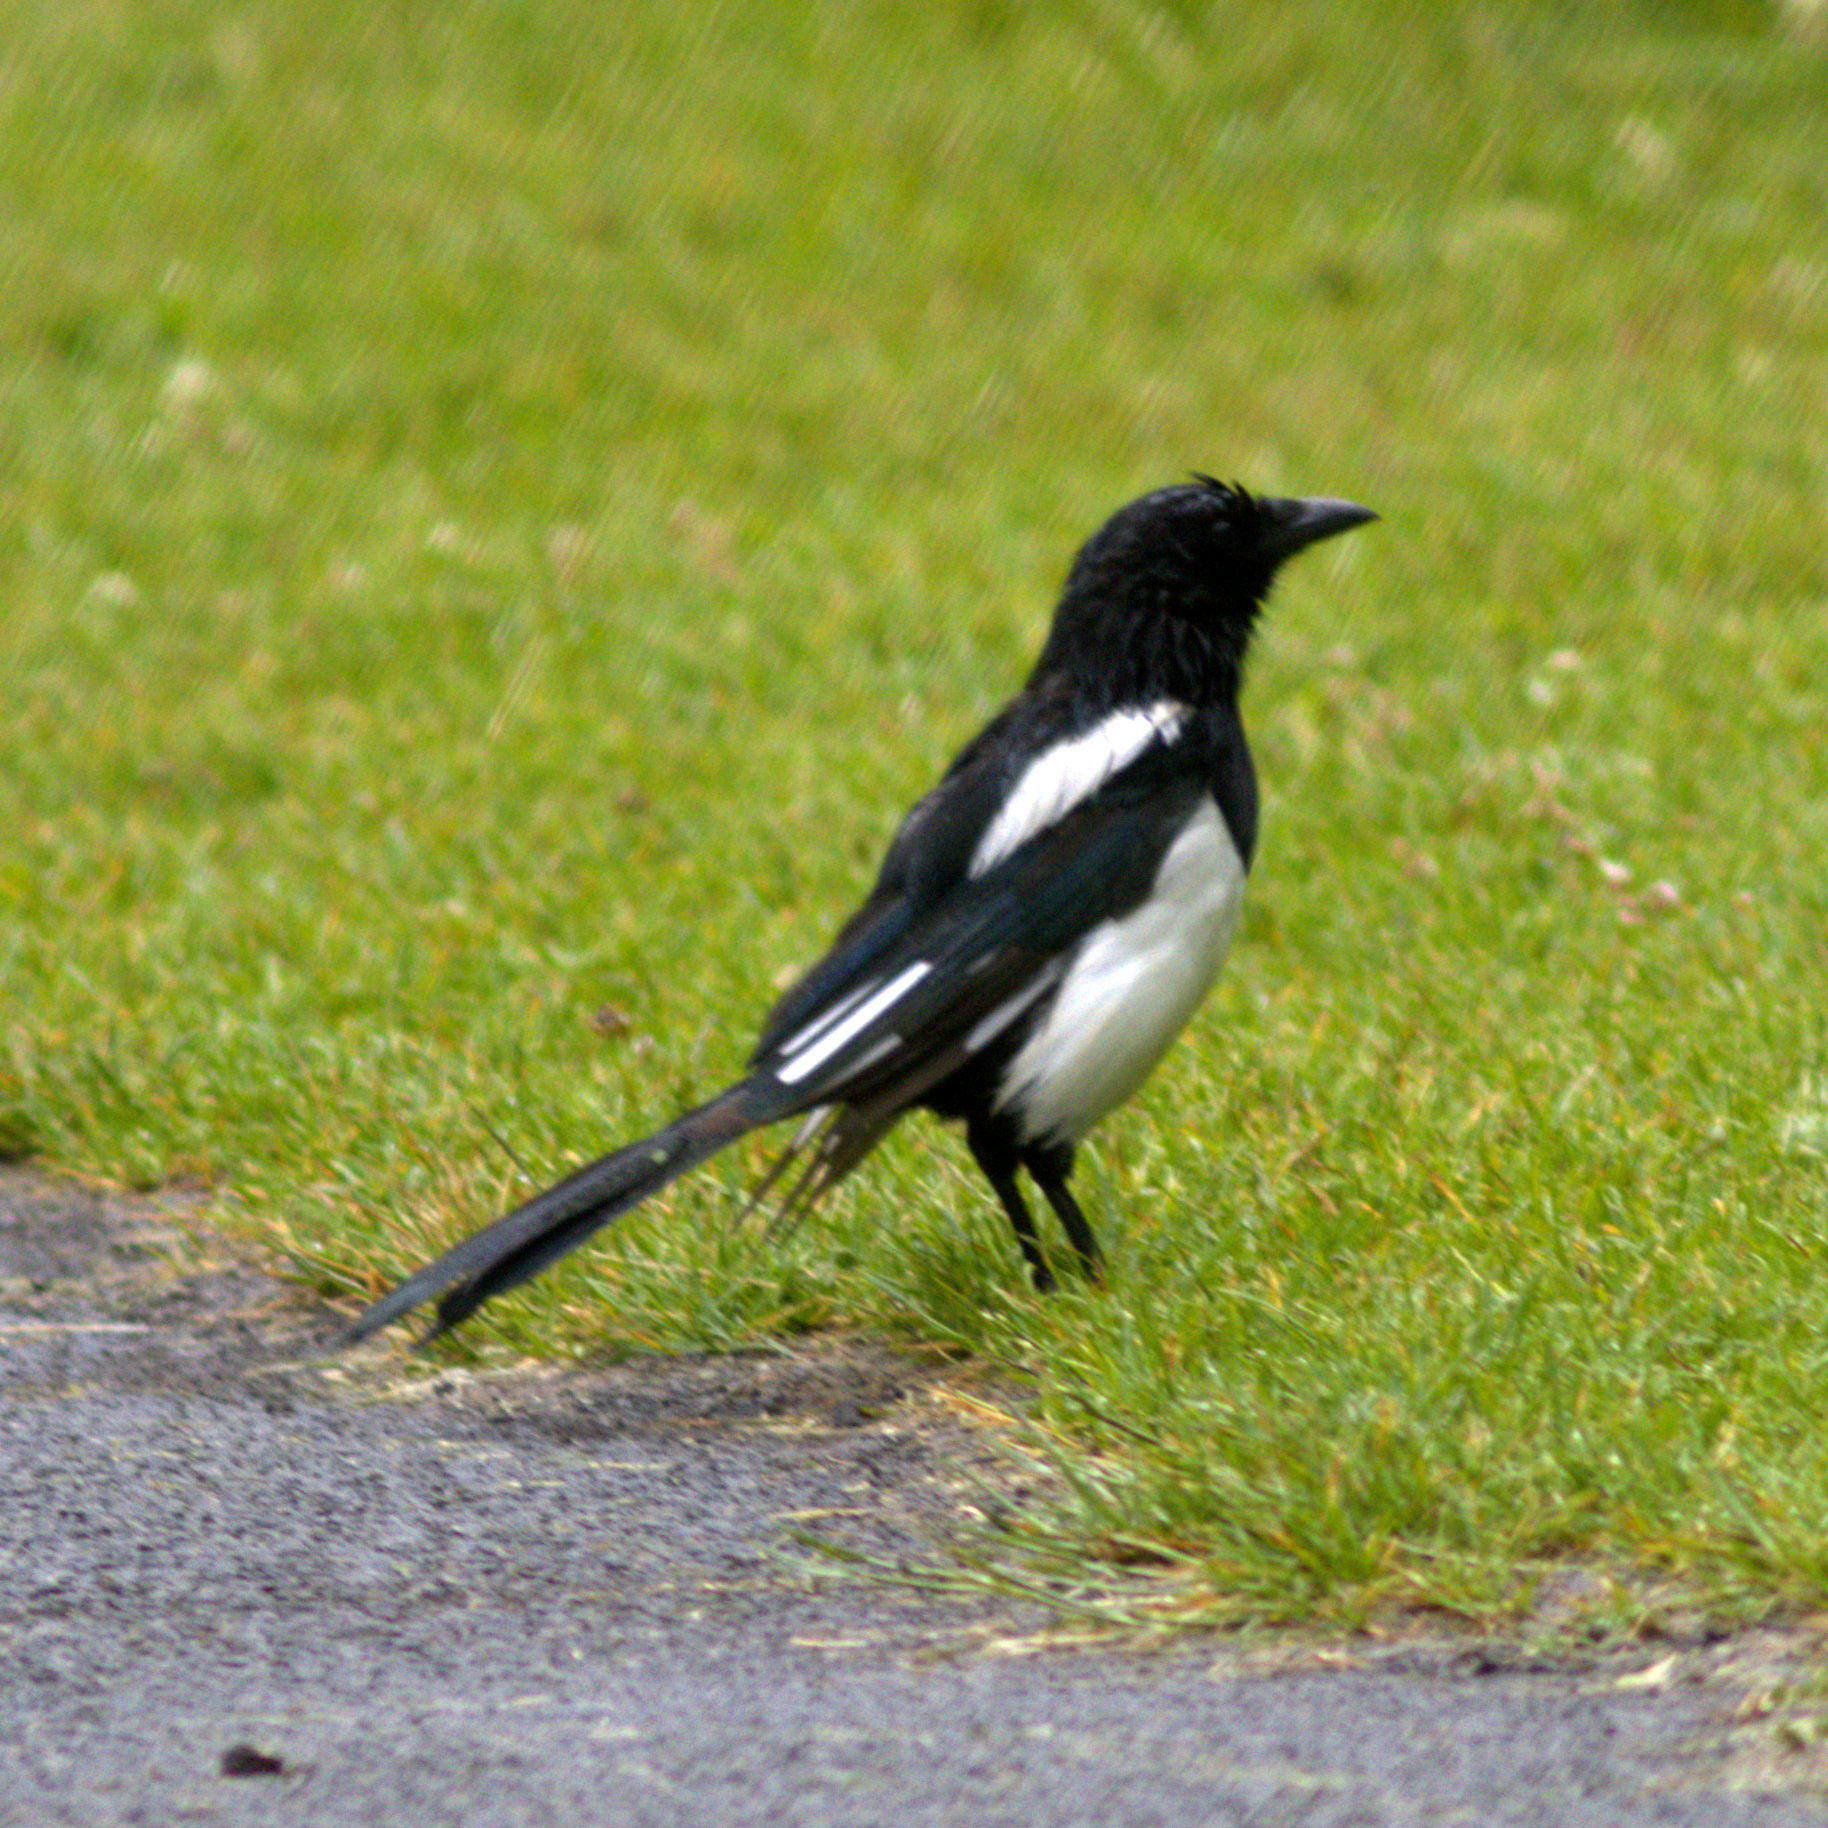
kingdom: Animalia
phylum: Chordata
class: Aves
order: Passeriformes
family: Corvidae
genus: Pica
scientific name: Pica pica
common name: Eurasian magpie
